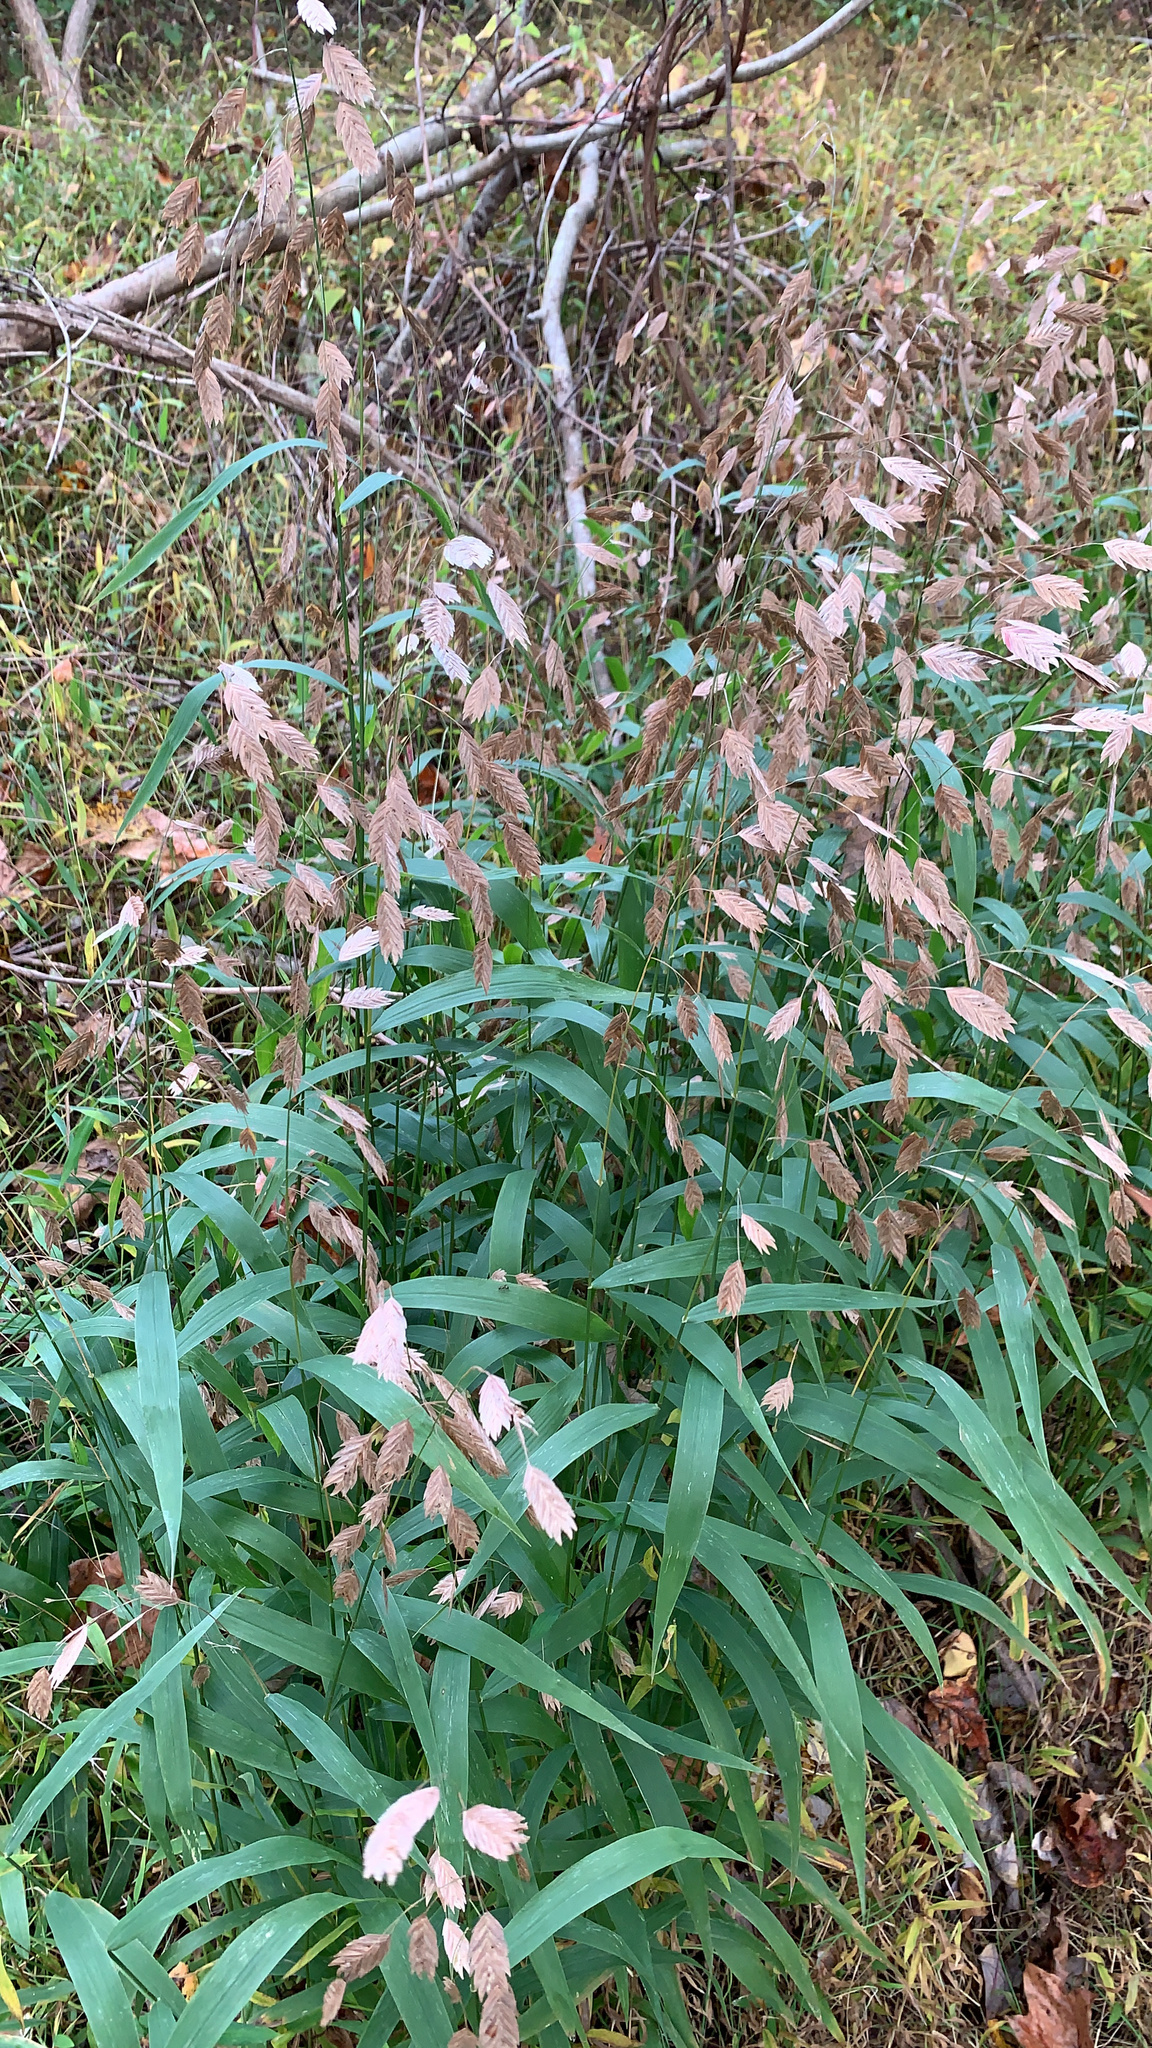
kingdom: Plantae
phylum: Tracheophyta
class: Liliopsida
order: Poales
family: Poaceae
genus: Chasmanthium
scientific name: Chasmanthium latifolium
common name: Broad-leaved chasmanthium
